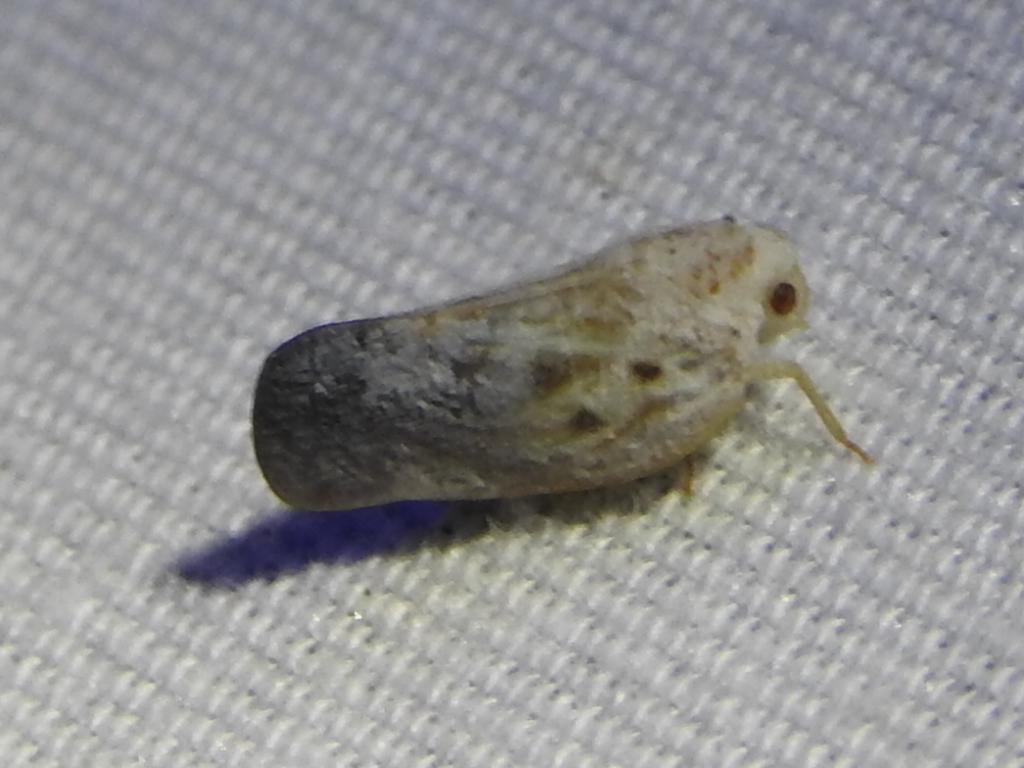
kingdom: Animalia
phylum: Arthropoda
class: Insecta
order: Hemiptera
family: Flatidae
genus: Metcalfa
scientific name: Metcalfa pruinosa
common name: Citrus flatid planthopper
